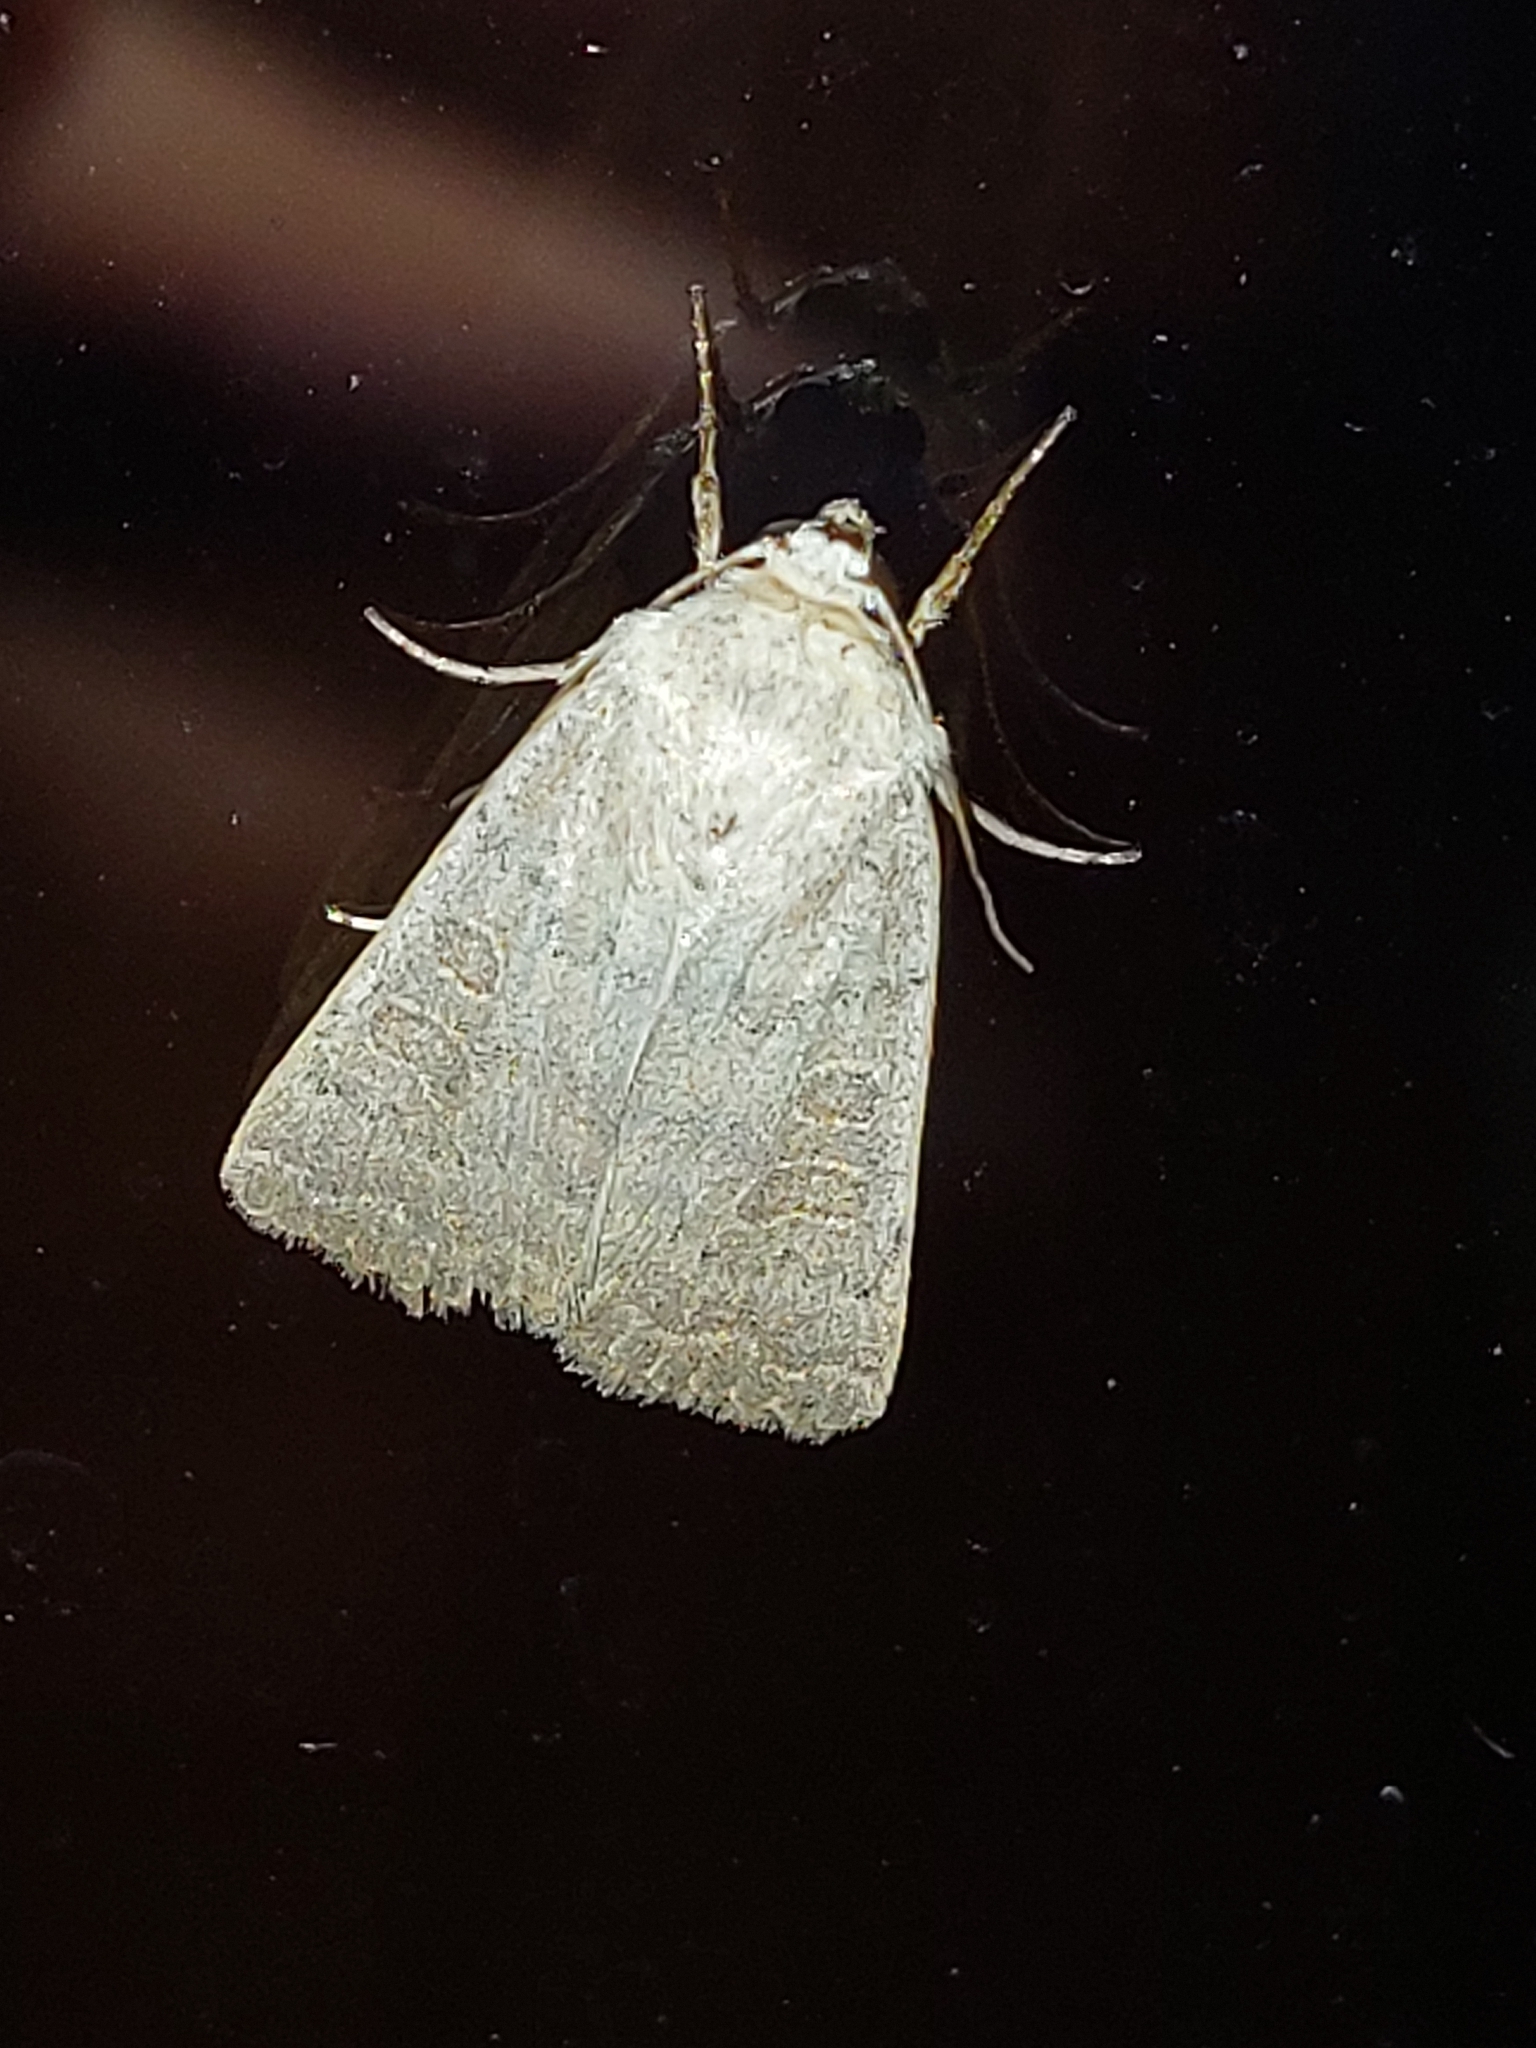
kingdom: Animalia
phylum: Arthropoda
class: Insecta
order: Lepidoptera
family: Noctuidae
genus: Hoplodrina
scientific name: Hoplodrina ambigua
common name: Vine's rustic
